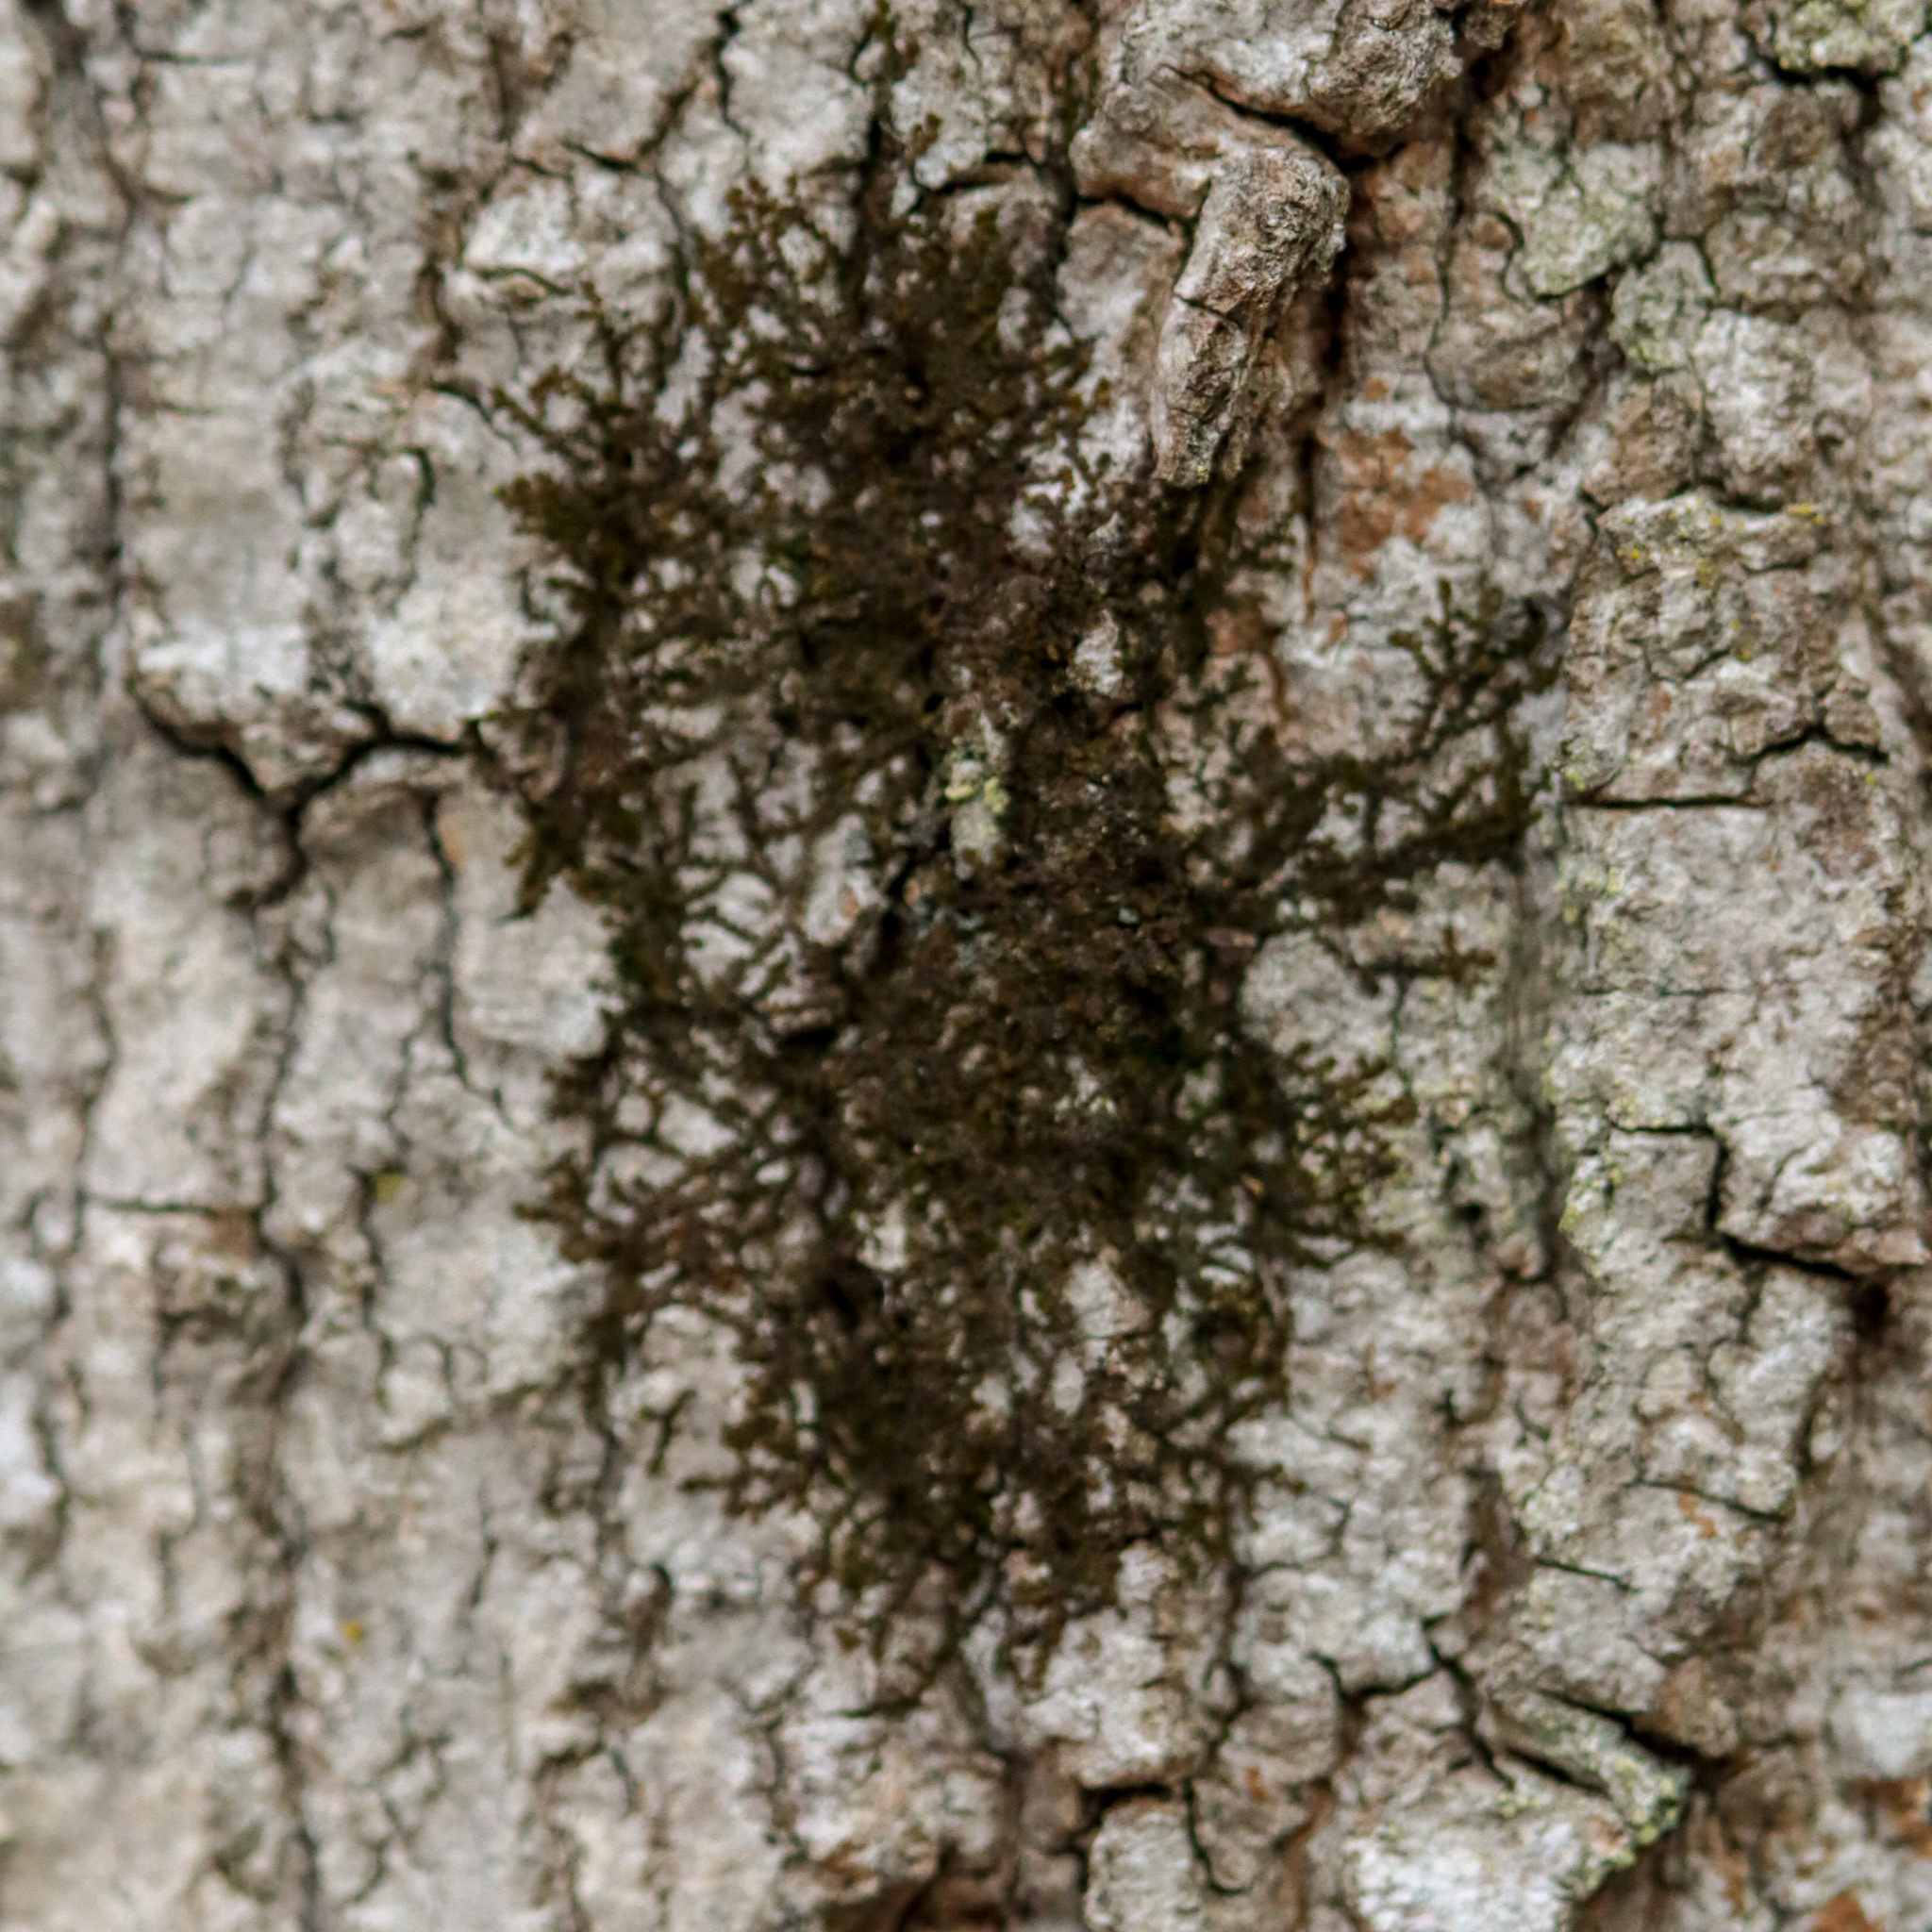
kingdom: Plantae
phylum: Marchantiophyta
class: Jungermanniopsida
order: Porellales
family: Frullaniaceae
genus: Frullania
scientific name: Frullania eboracensis
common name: New york scalewort
